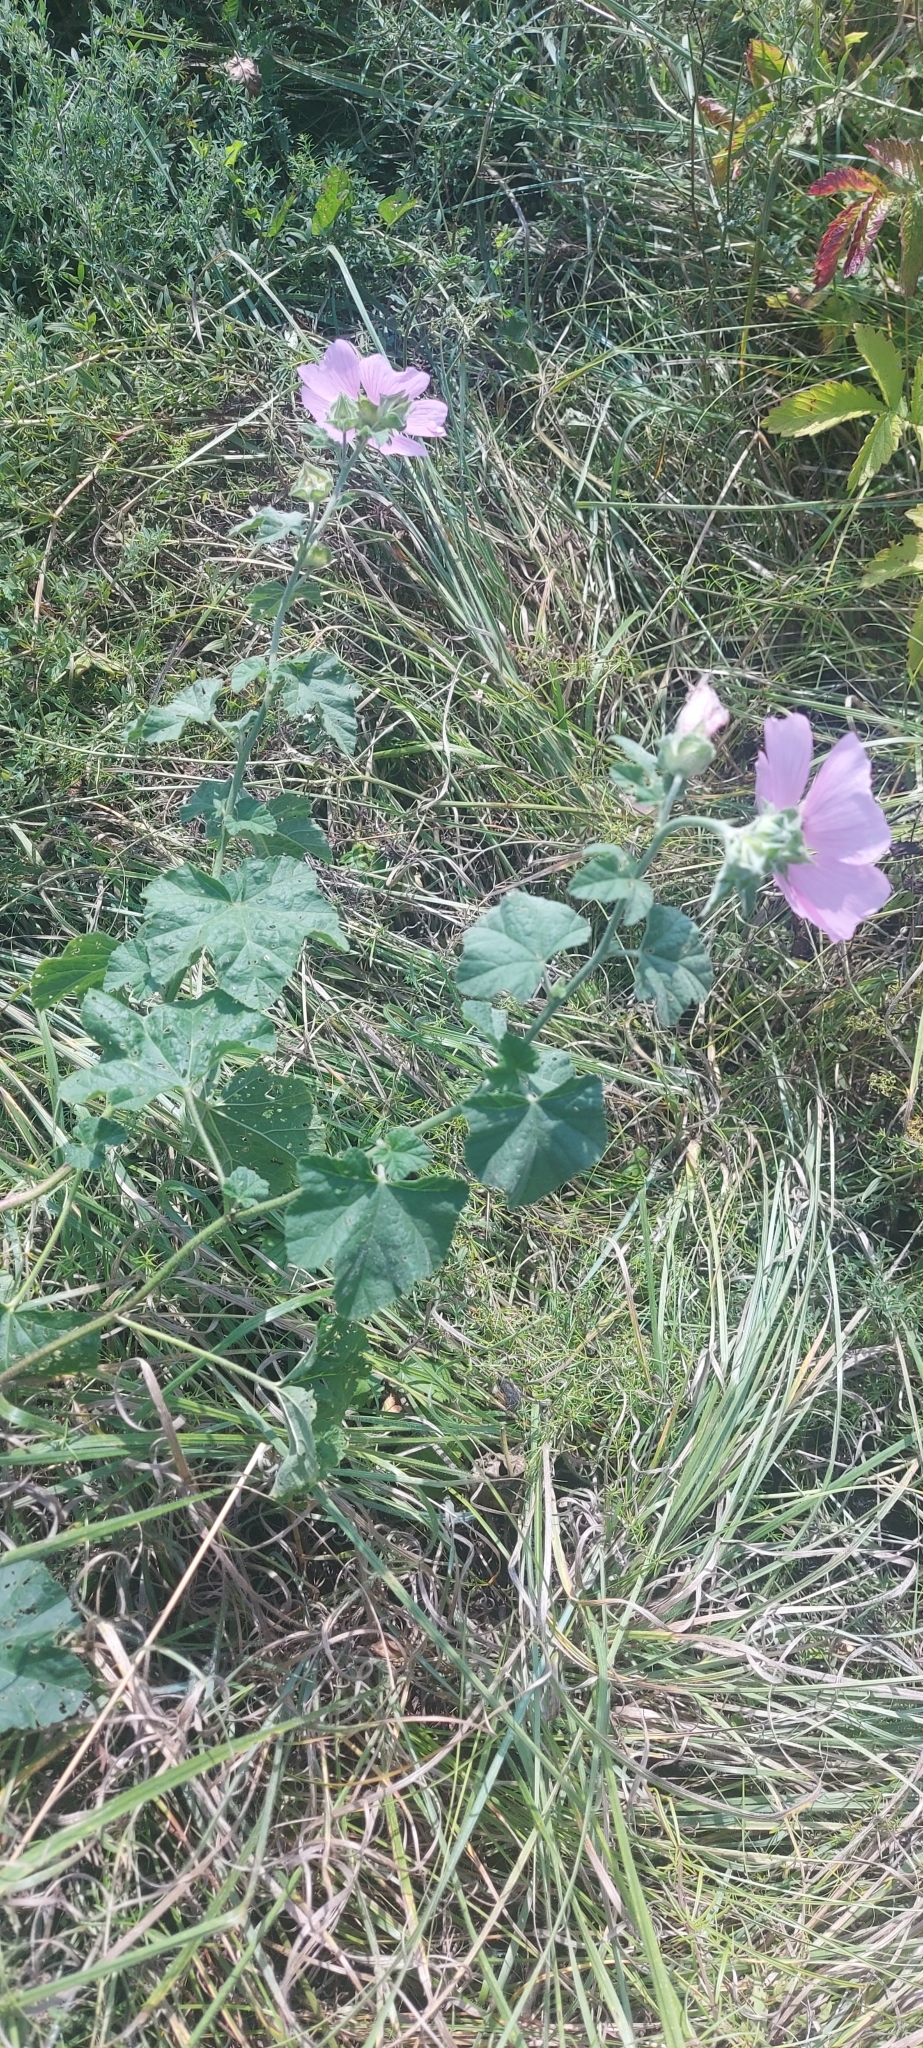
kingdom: Plantae
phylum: Tracheophyta
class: Magnoliopsida
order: Malvales
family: Malvaceae
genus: Malva
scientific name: Malva thuringiaca
